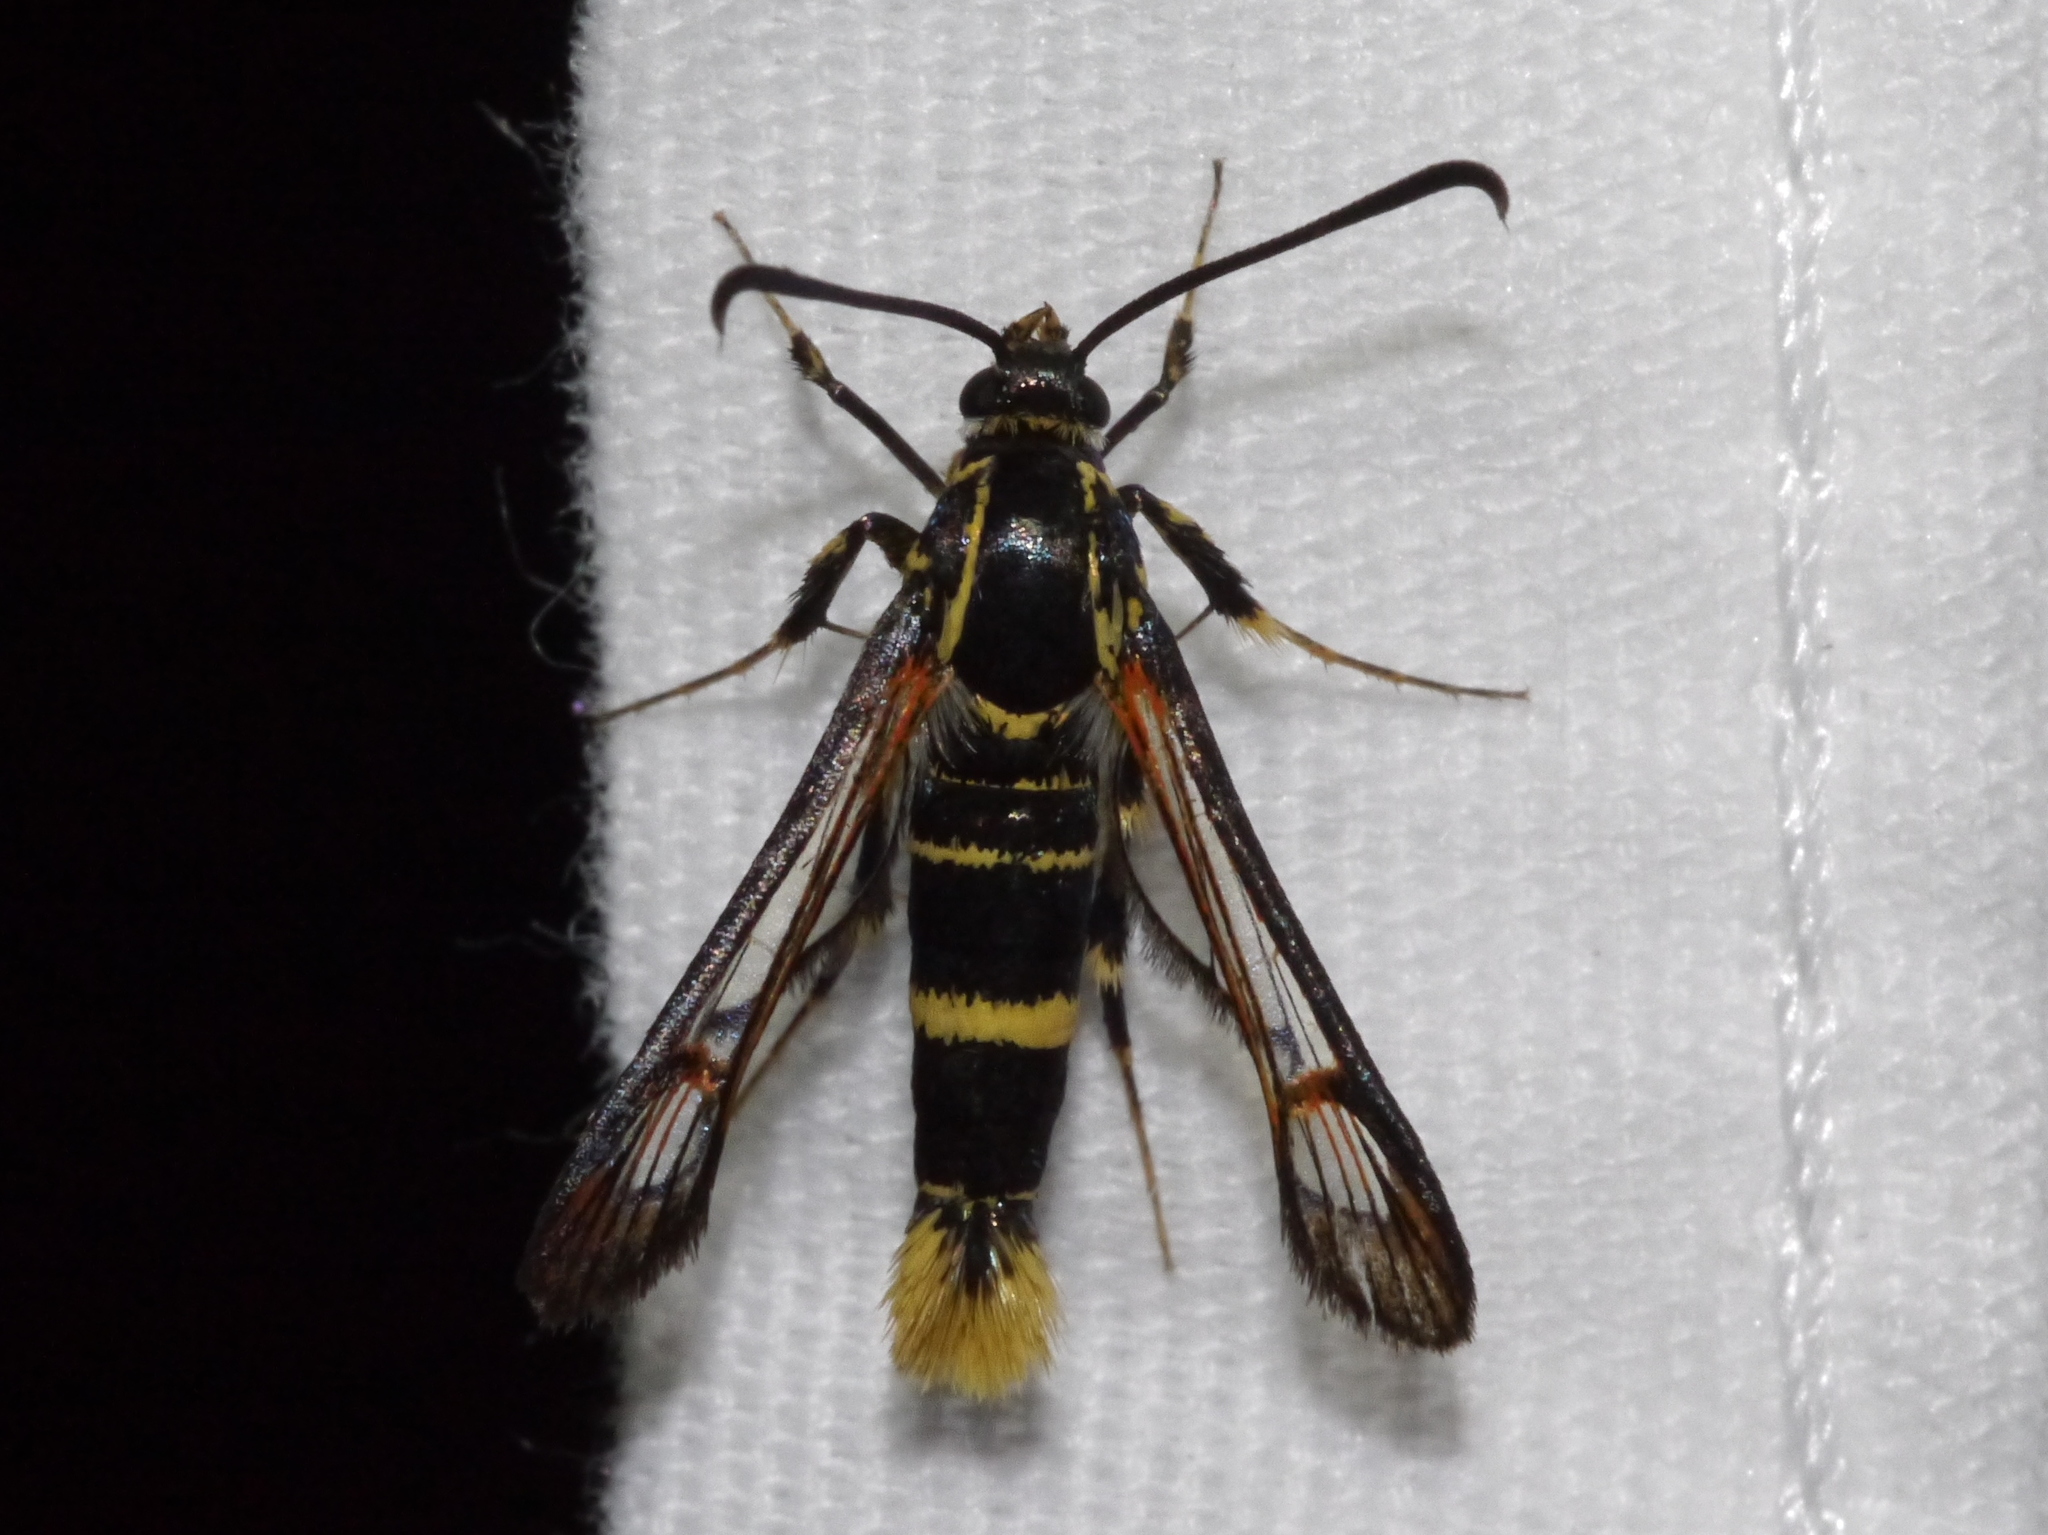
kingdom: Animalia
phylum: Arthropoda
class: Insecta
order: Lepidoptera
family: Sesiidae
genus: Carmenta
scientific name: Carmenta arizonae
